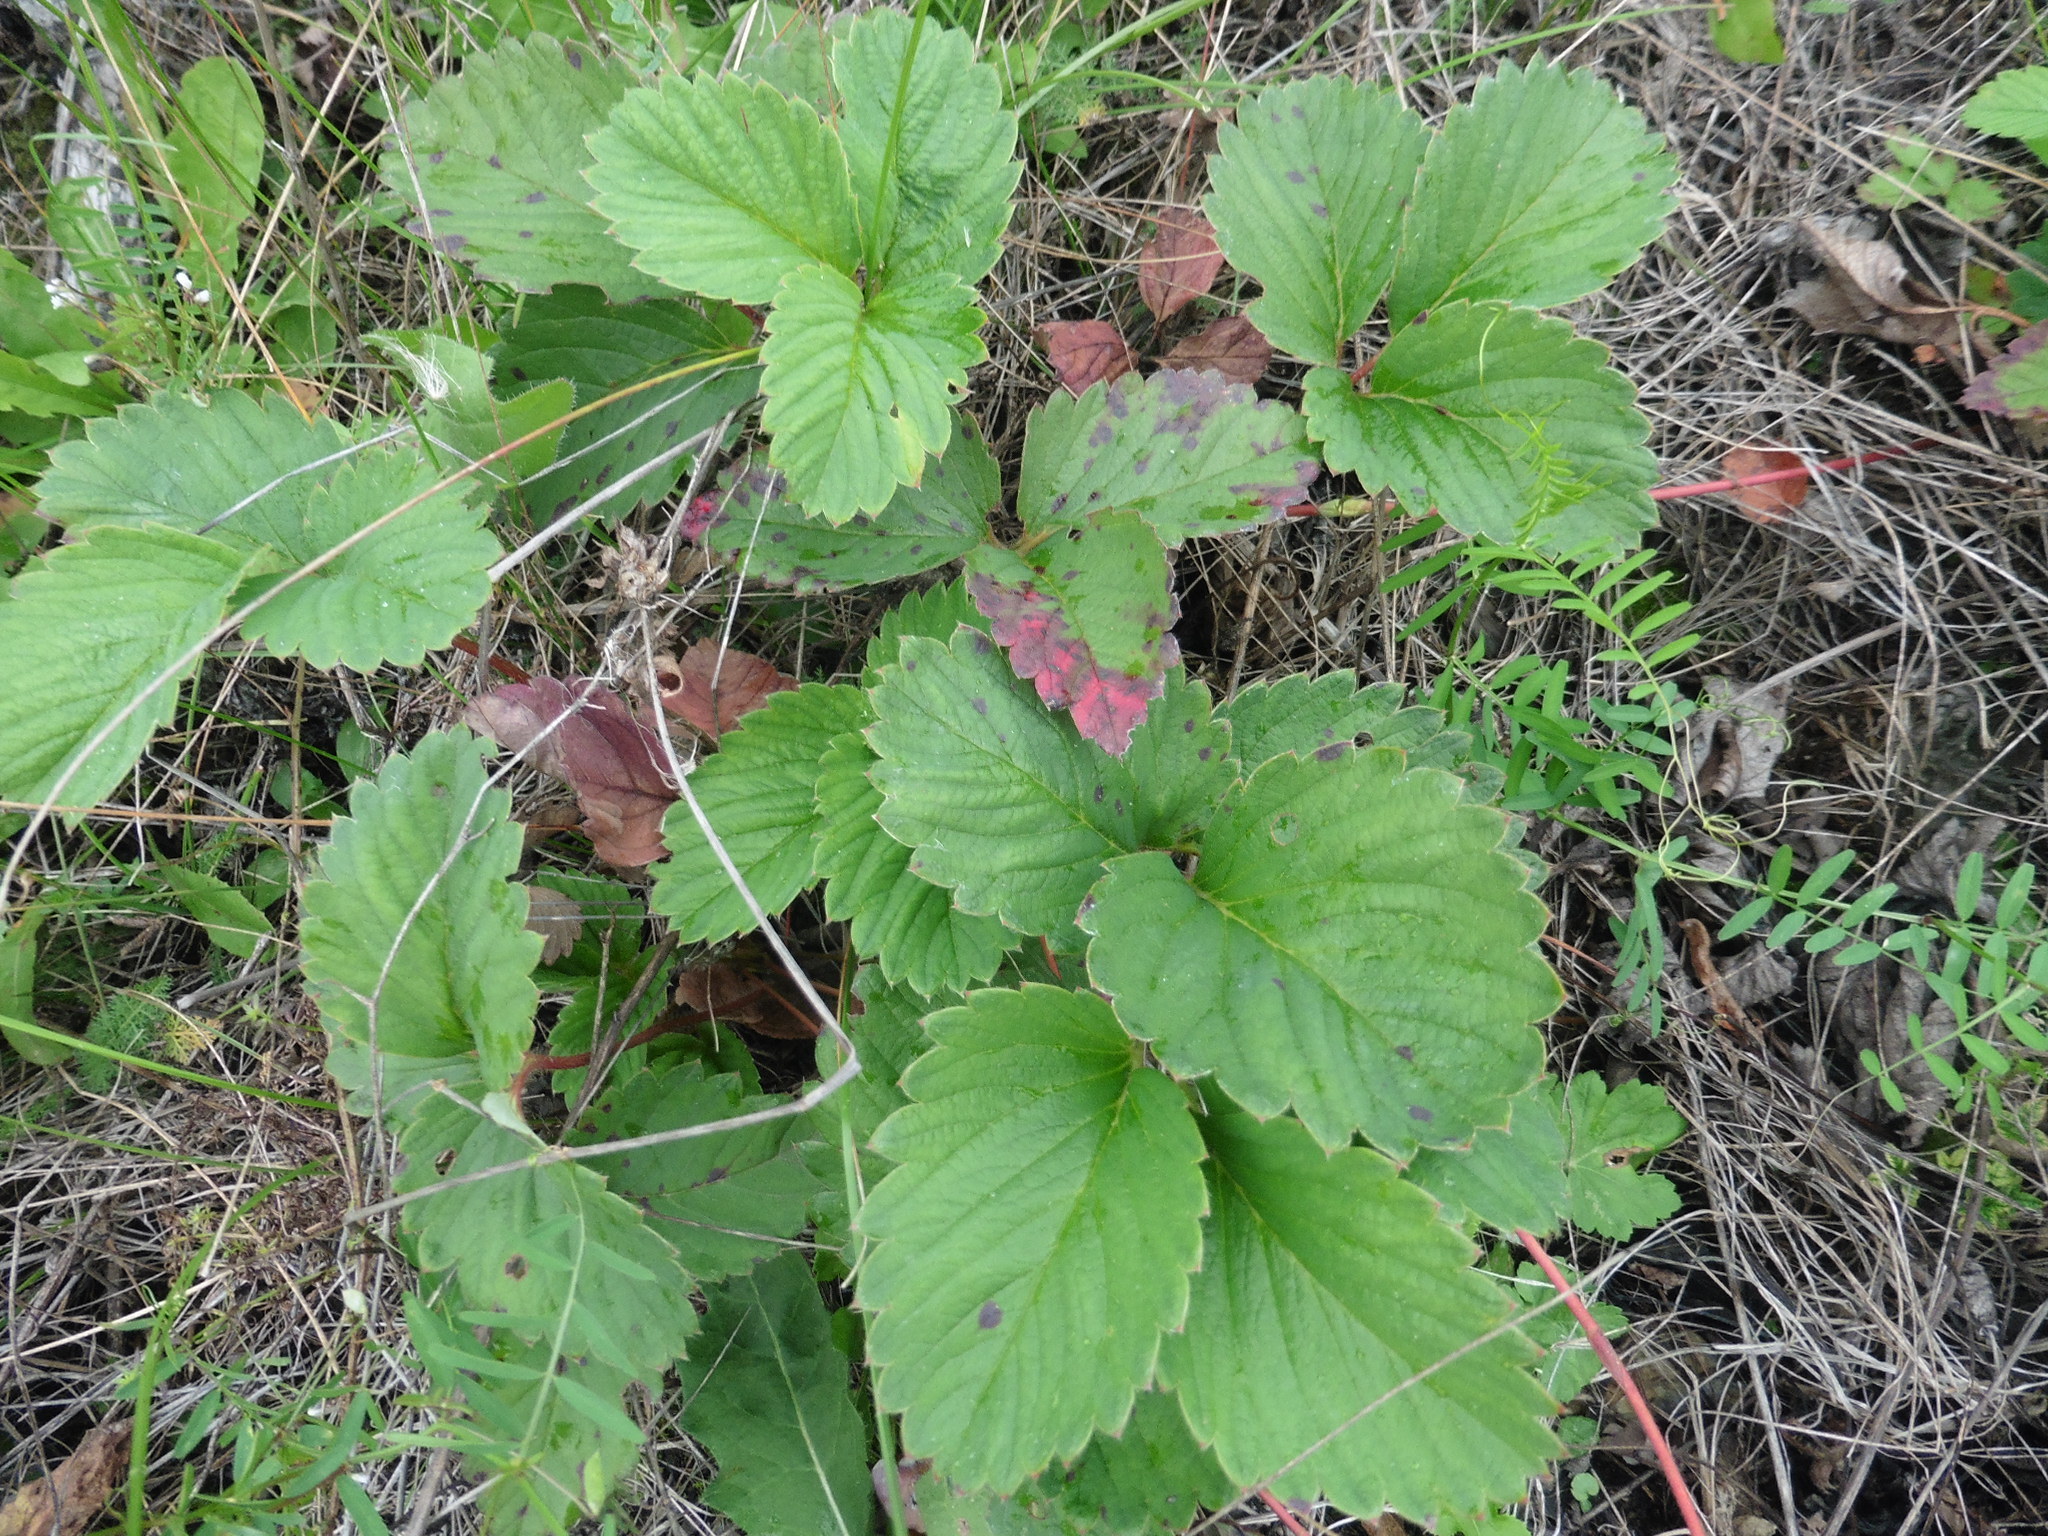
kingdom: Plantae
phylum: Tracheophyta
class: Magnoliopsida
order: Rosales
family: Rosaceae
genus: Fragaria
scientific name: Fragaria ananassa
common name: Garden strawberry
